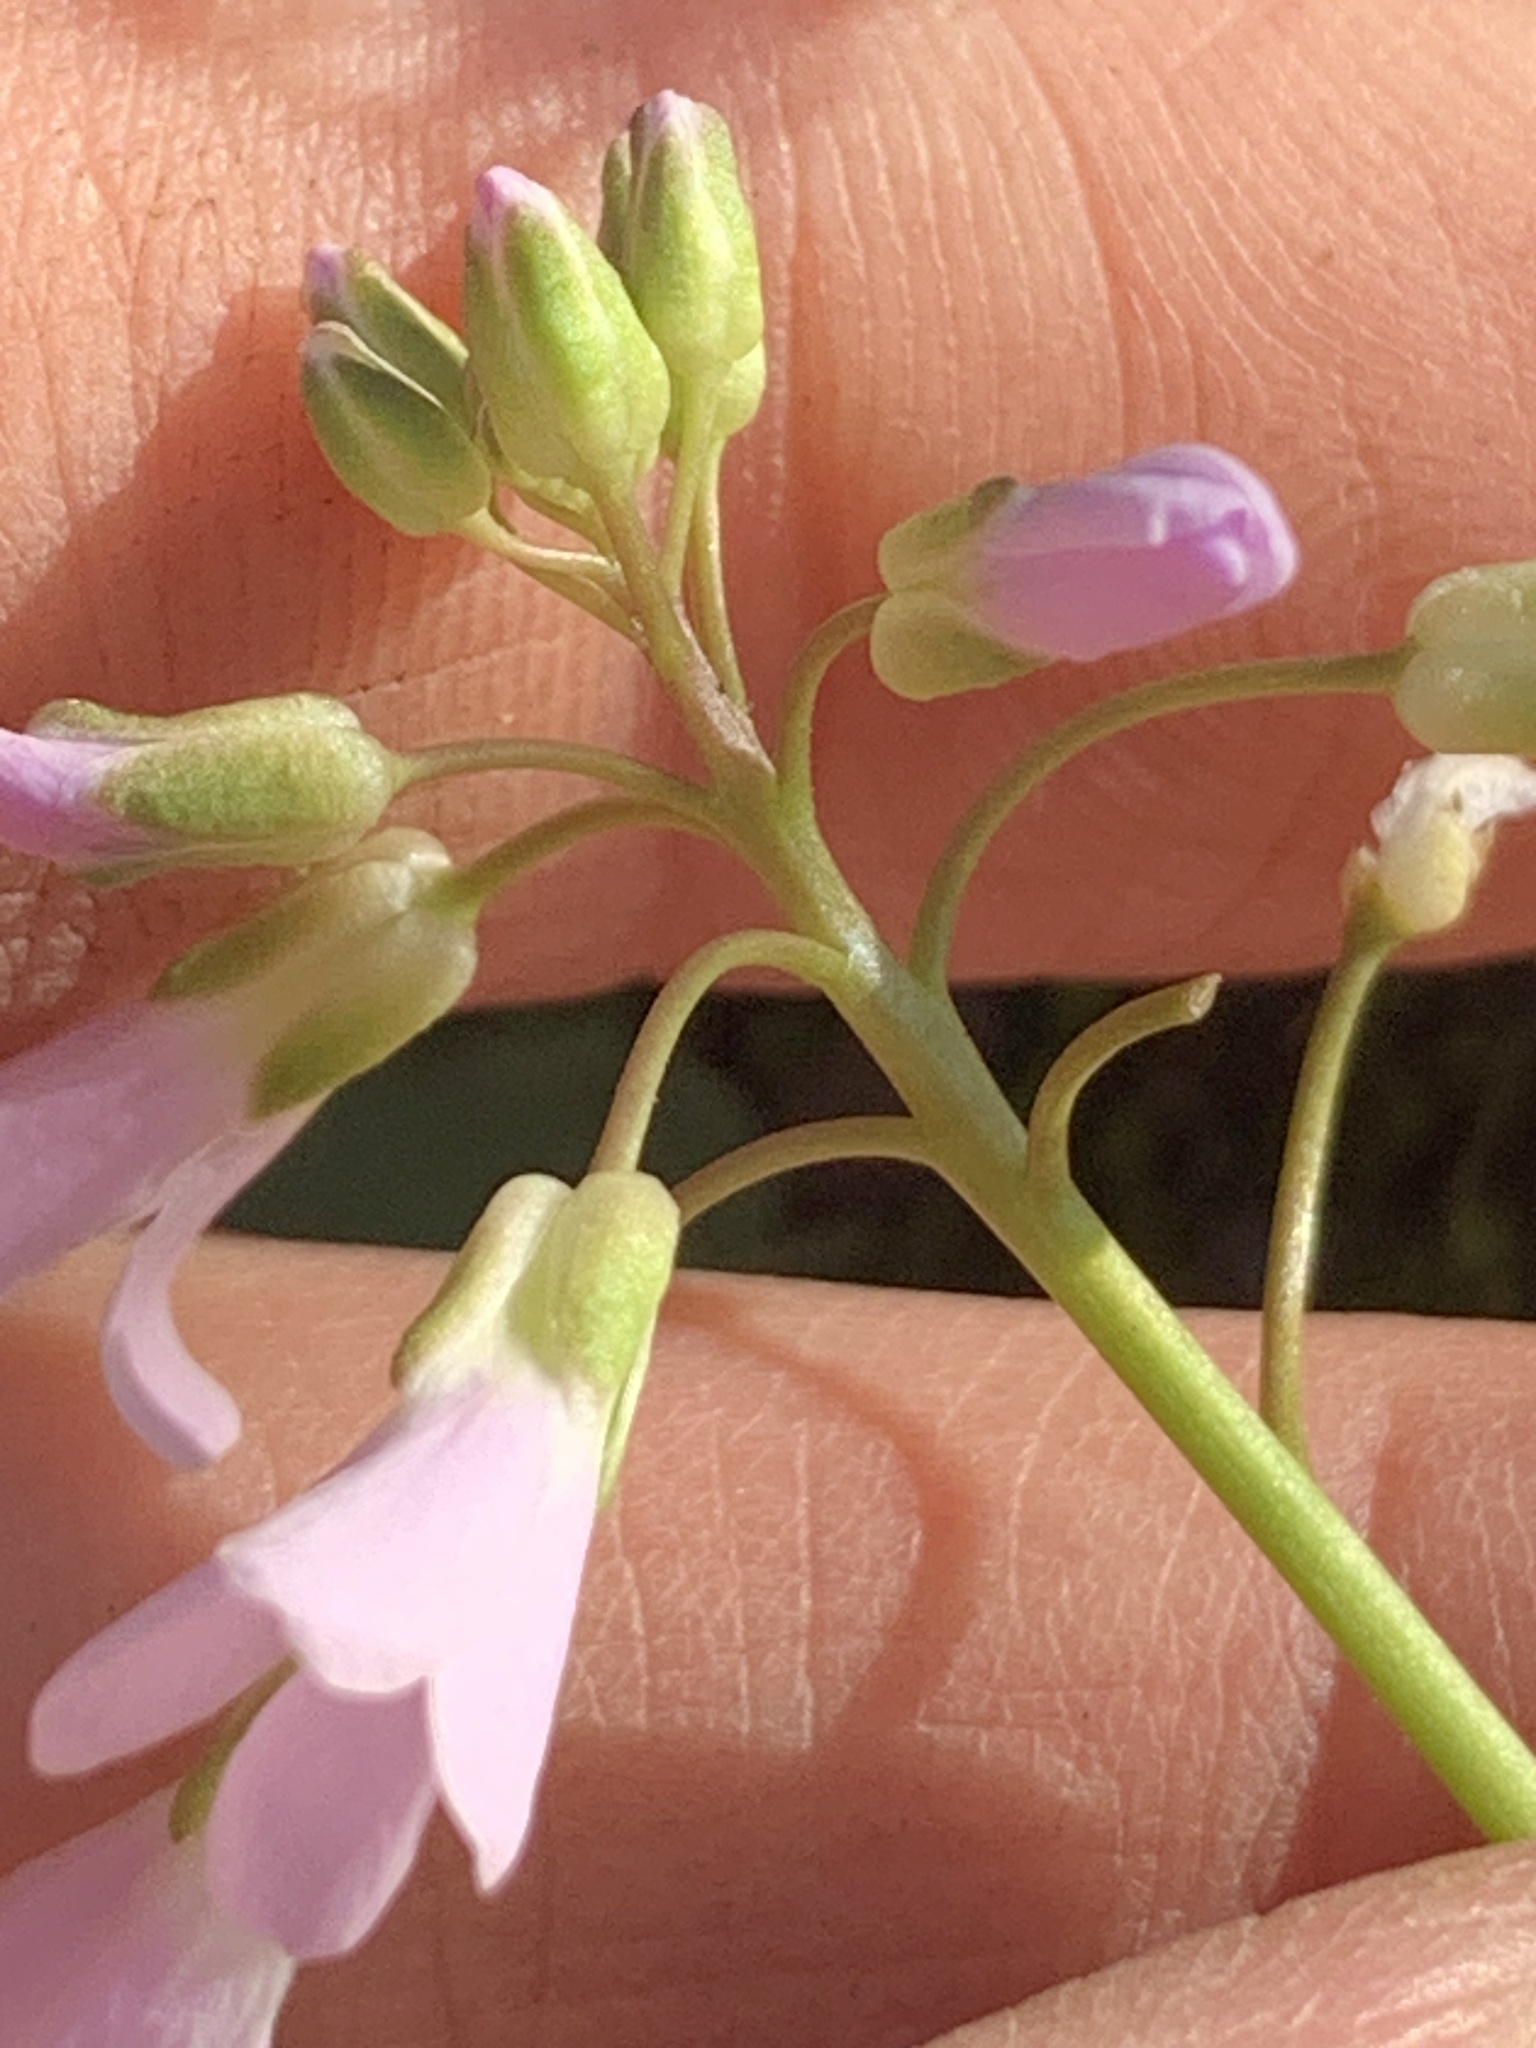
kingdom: Plantae
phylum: Tracheophyta
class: Magnoliopsida
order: Brassicales
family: Brassicaceae
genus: Cardamine
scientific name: Cardamine douglassii
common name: Purple cress
